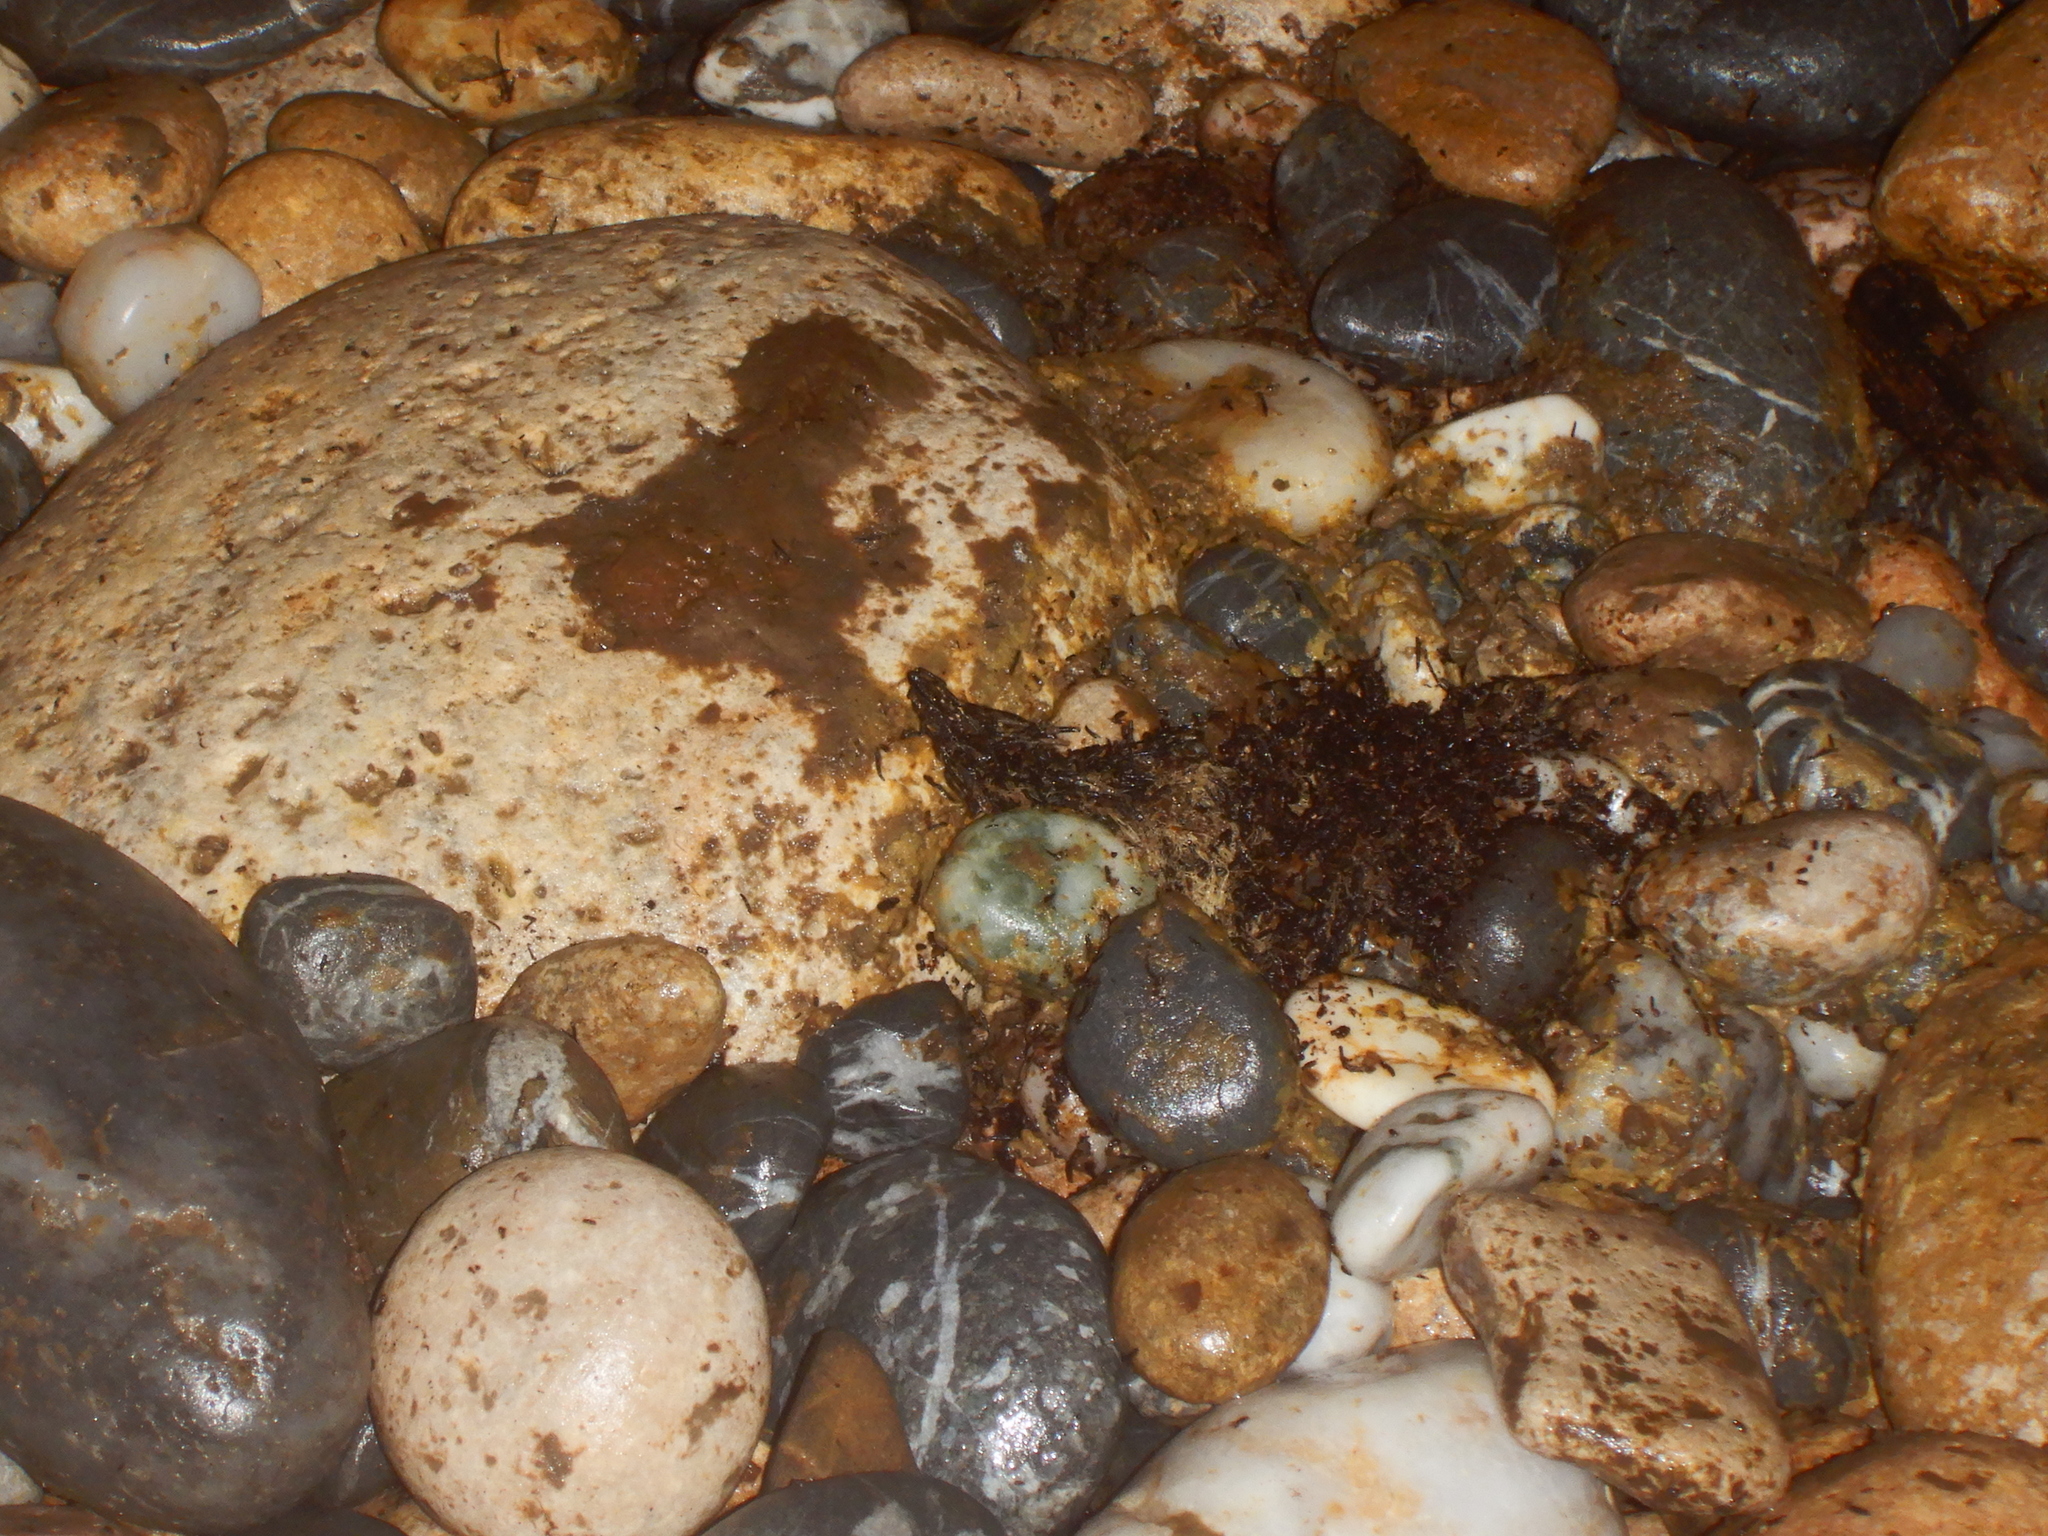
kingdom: Animalia
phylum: Chordata
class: Mammalia
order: Carnivora
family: Phocidae
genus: Monachus
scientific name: Monachus monachus
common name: Mediterranean monk seal
